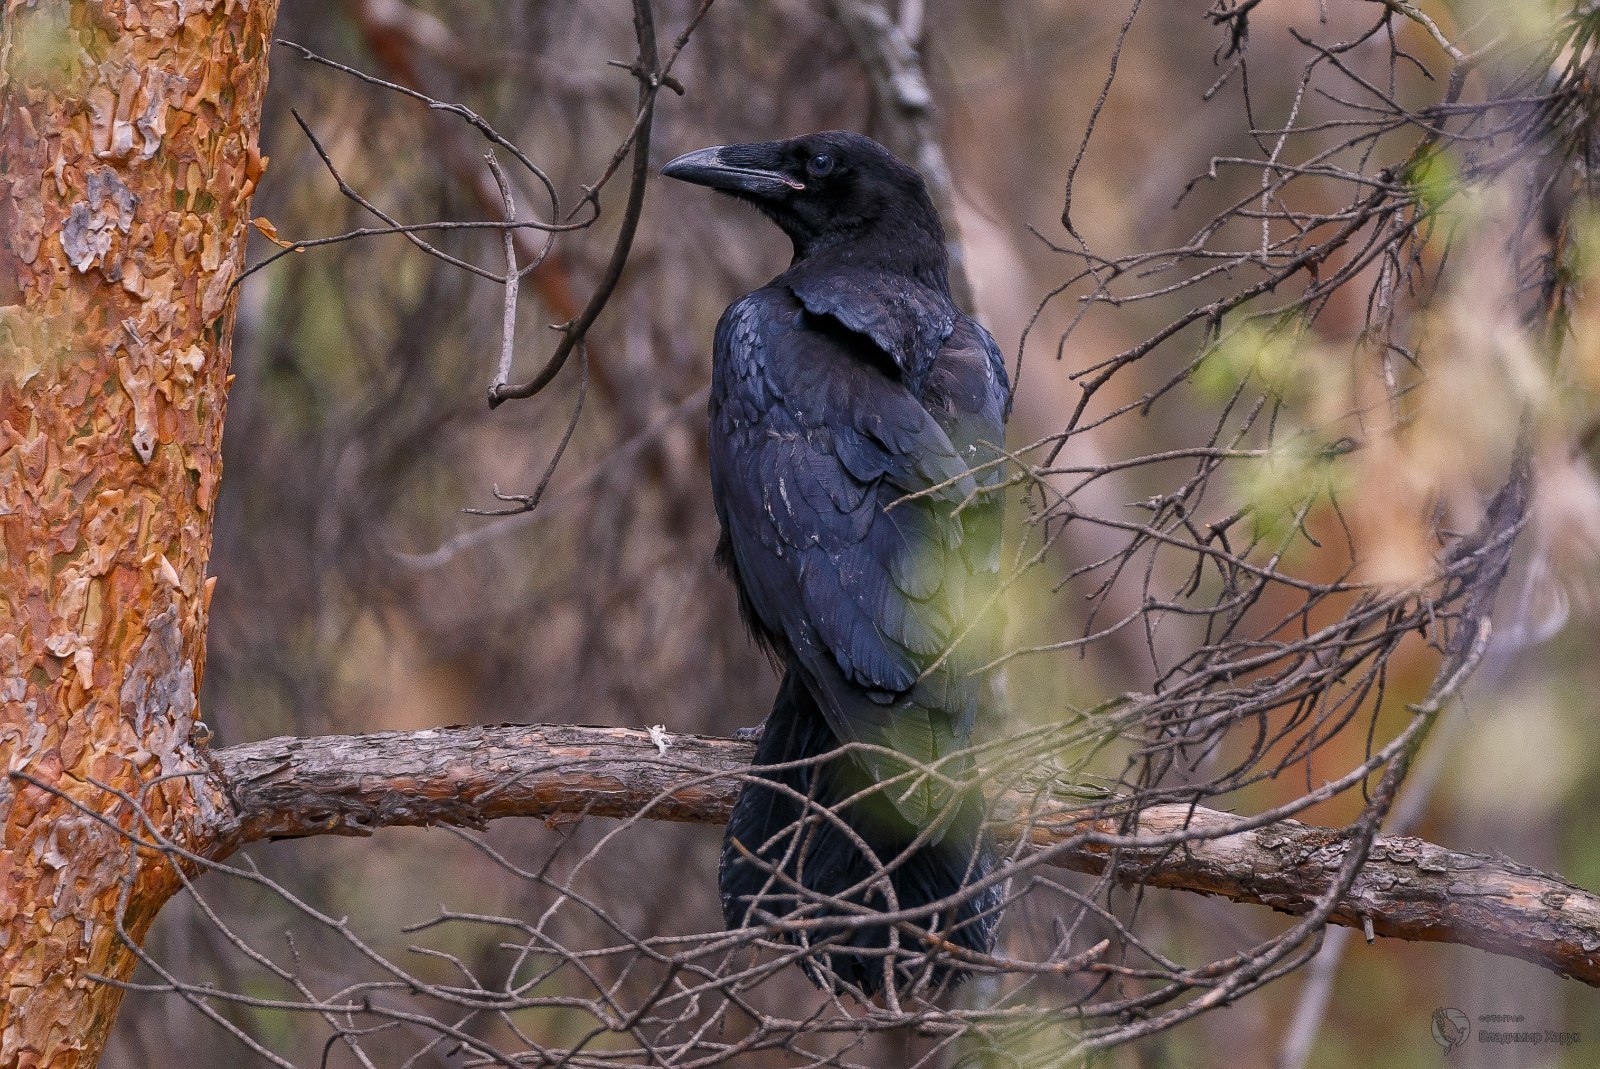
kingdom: Animalia
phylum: Chordata
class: Aves
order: Passeriformes
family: Corvidae
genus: Corvus
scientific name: Corvus corax
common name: Common raven
